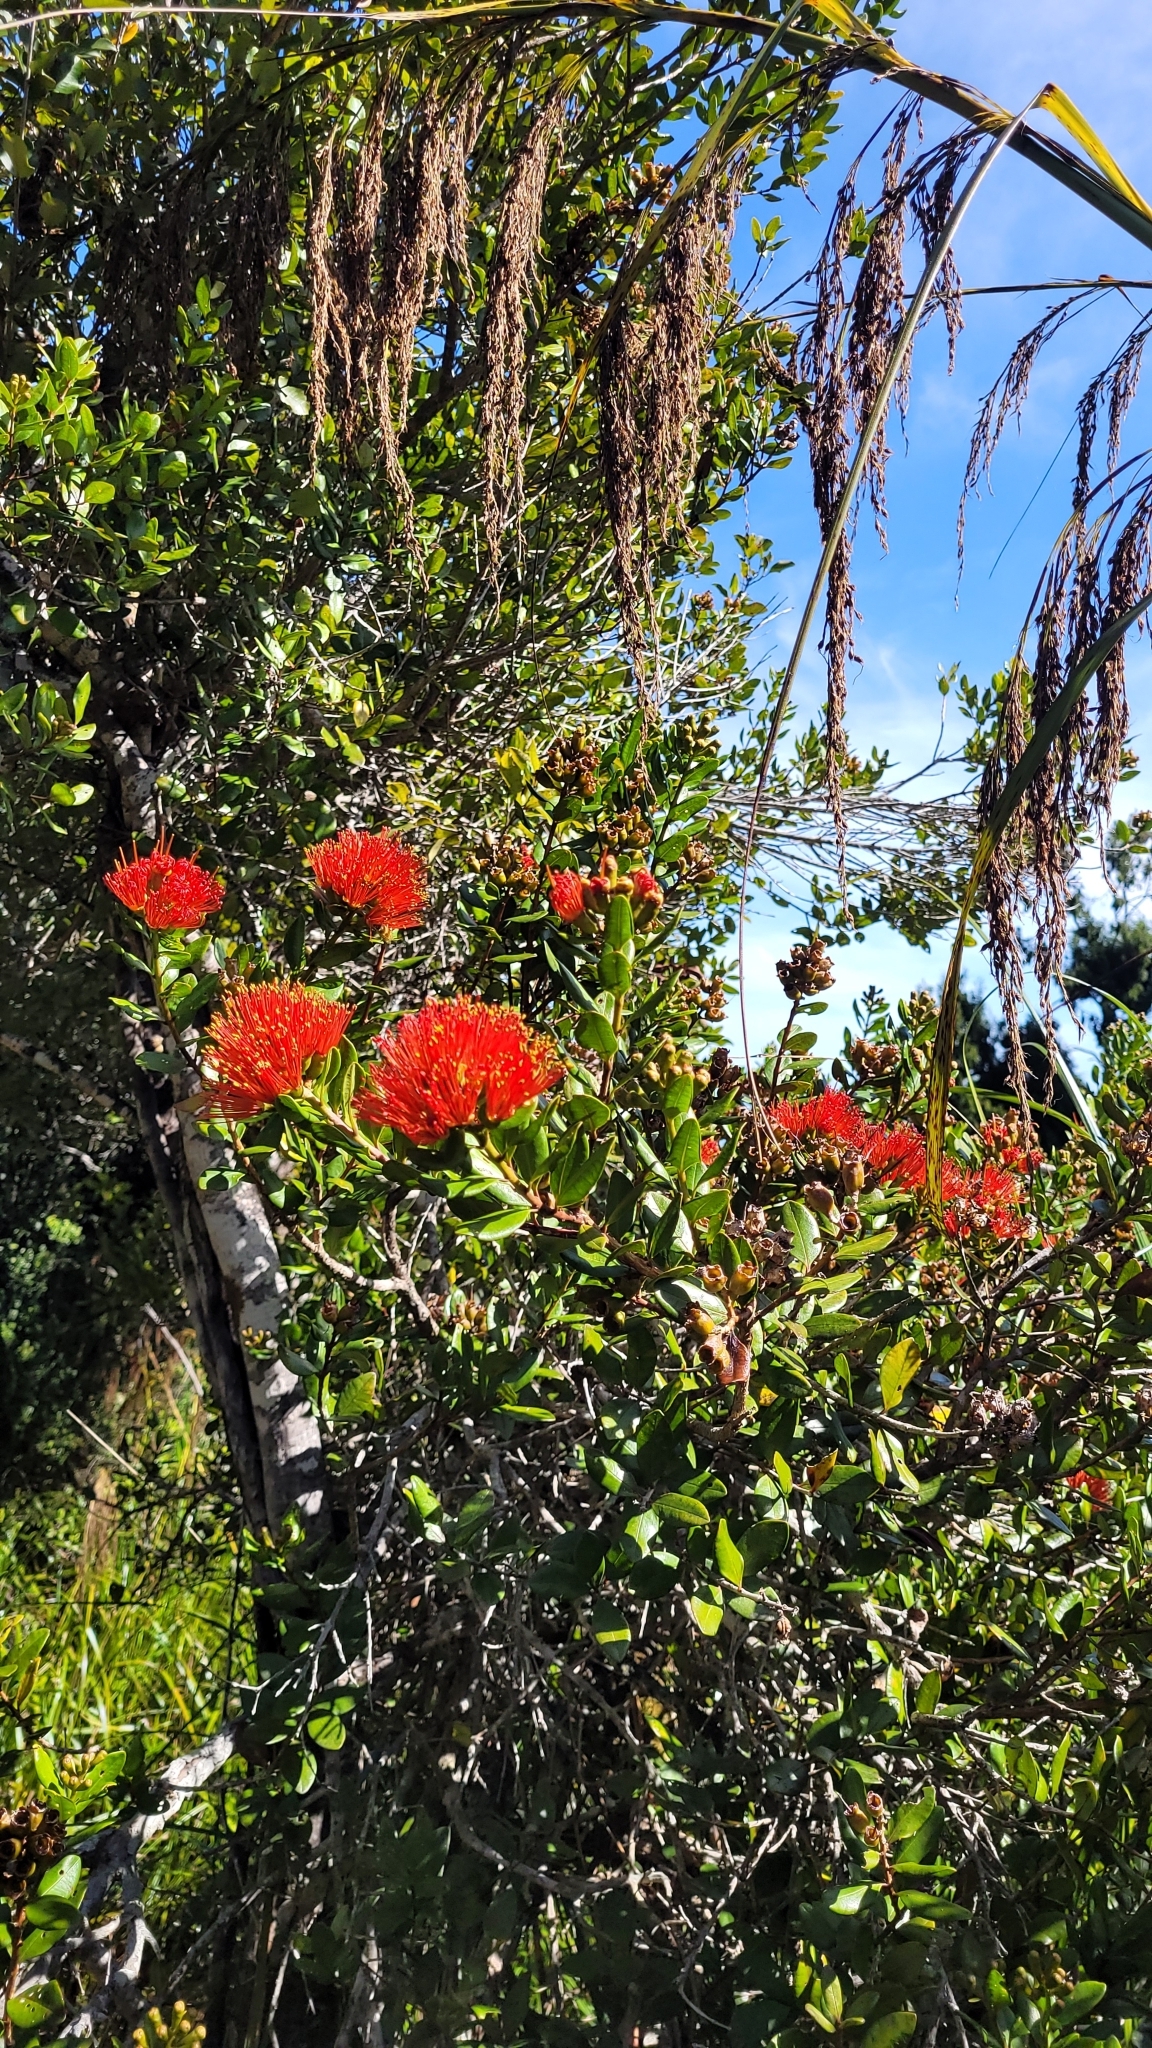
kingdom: Plantae
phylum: Tracheophyta
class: Magnoliopsida
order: Myrtales
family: Myrtaceae
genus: Metrosideros
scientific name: Metrosideros fulgens
